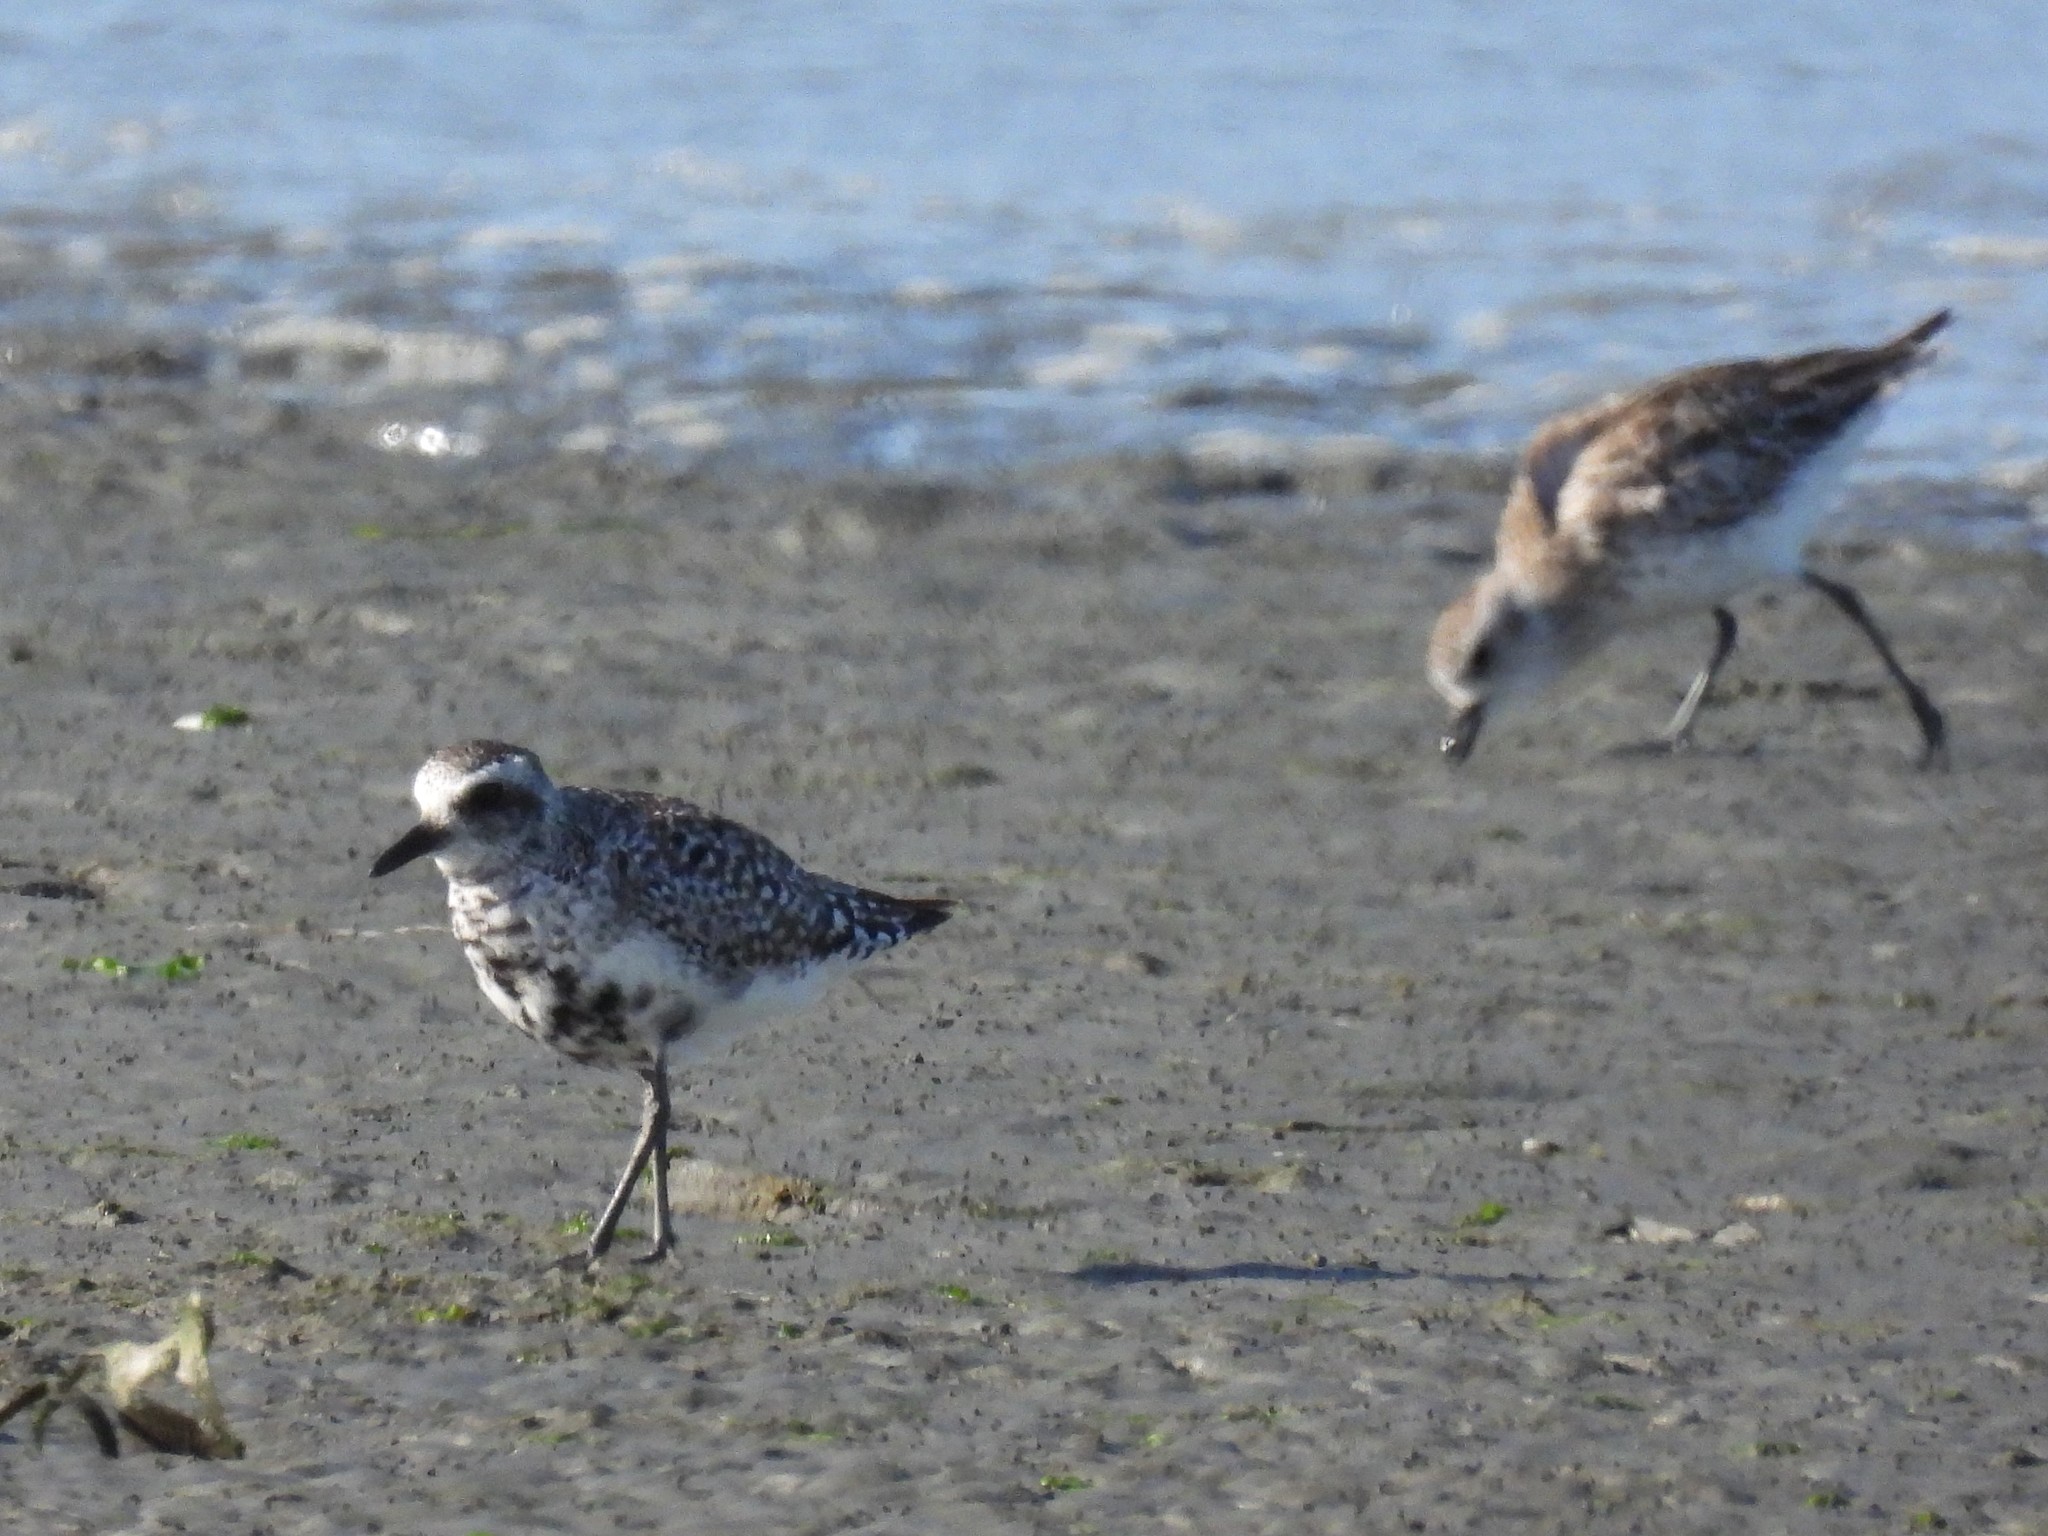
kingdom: Animalia
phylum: Chordata
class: Aves
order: Charadriiformes
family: Charadriidae
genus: Pluvialis
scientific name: Pluvialis squatarola
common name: Grey plover
